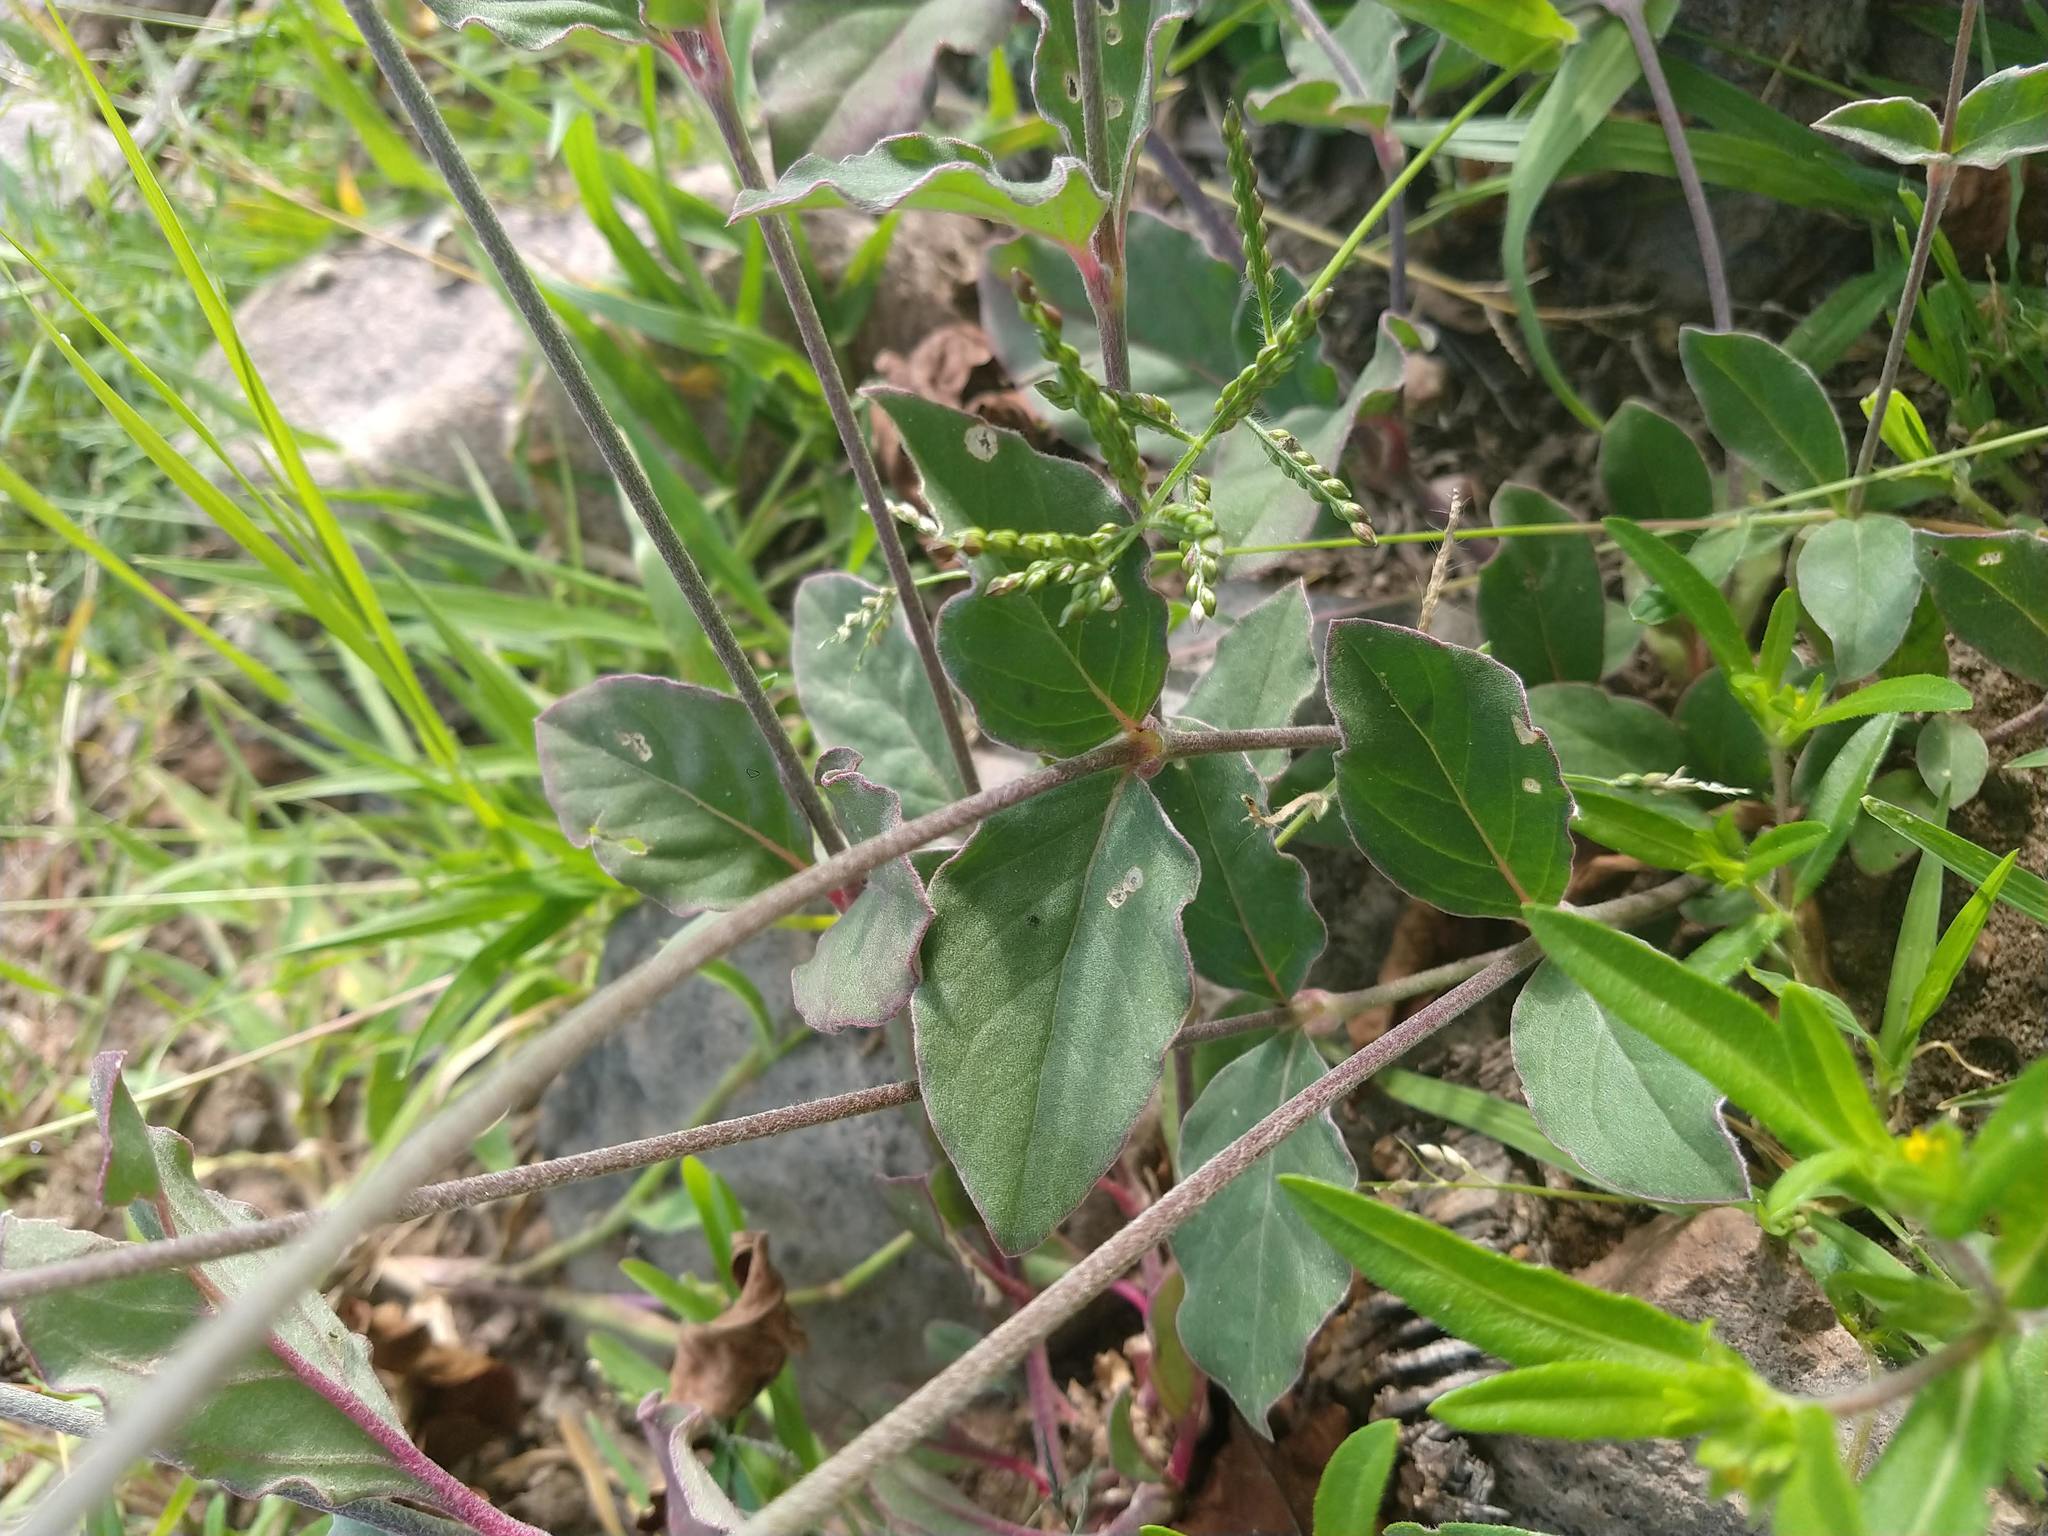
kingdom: Plantae
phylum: Tracheophyta
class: Magnoliopsida
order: Caryophyllales
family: Amaranthaceae
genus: Froelichia
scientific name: Froelichia floridana
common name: Florida snake-cotton
